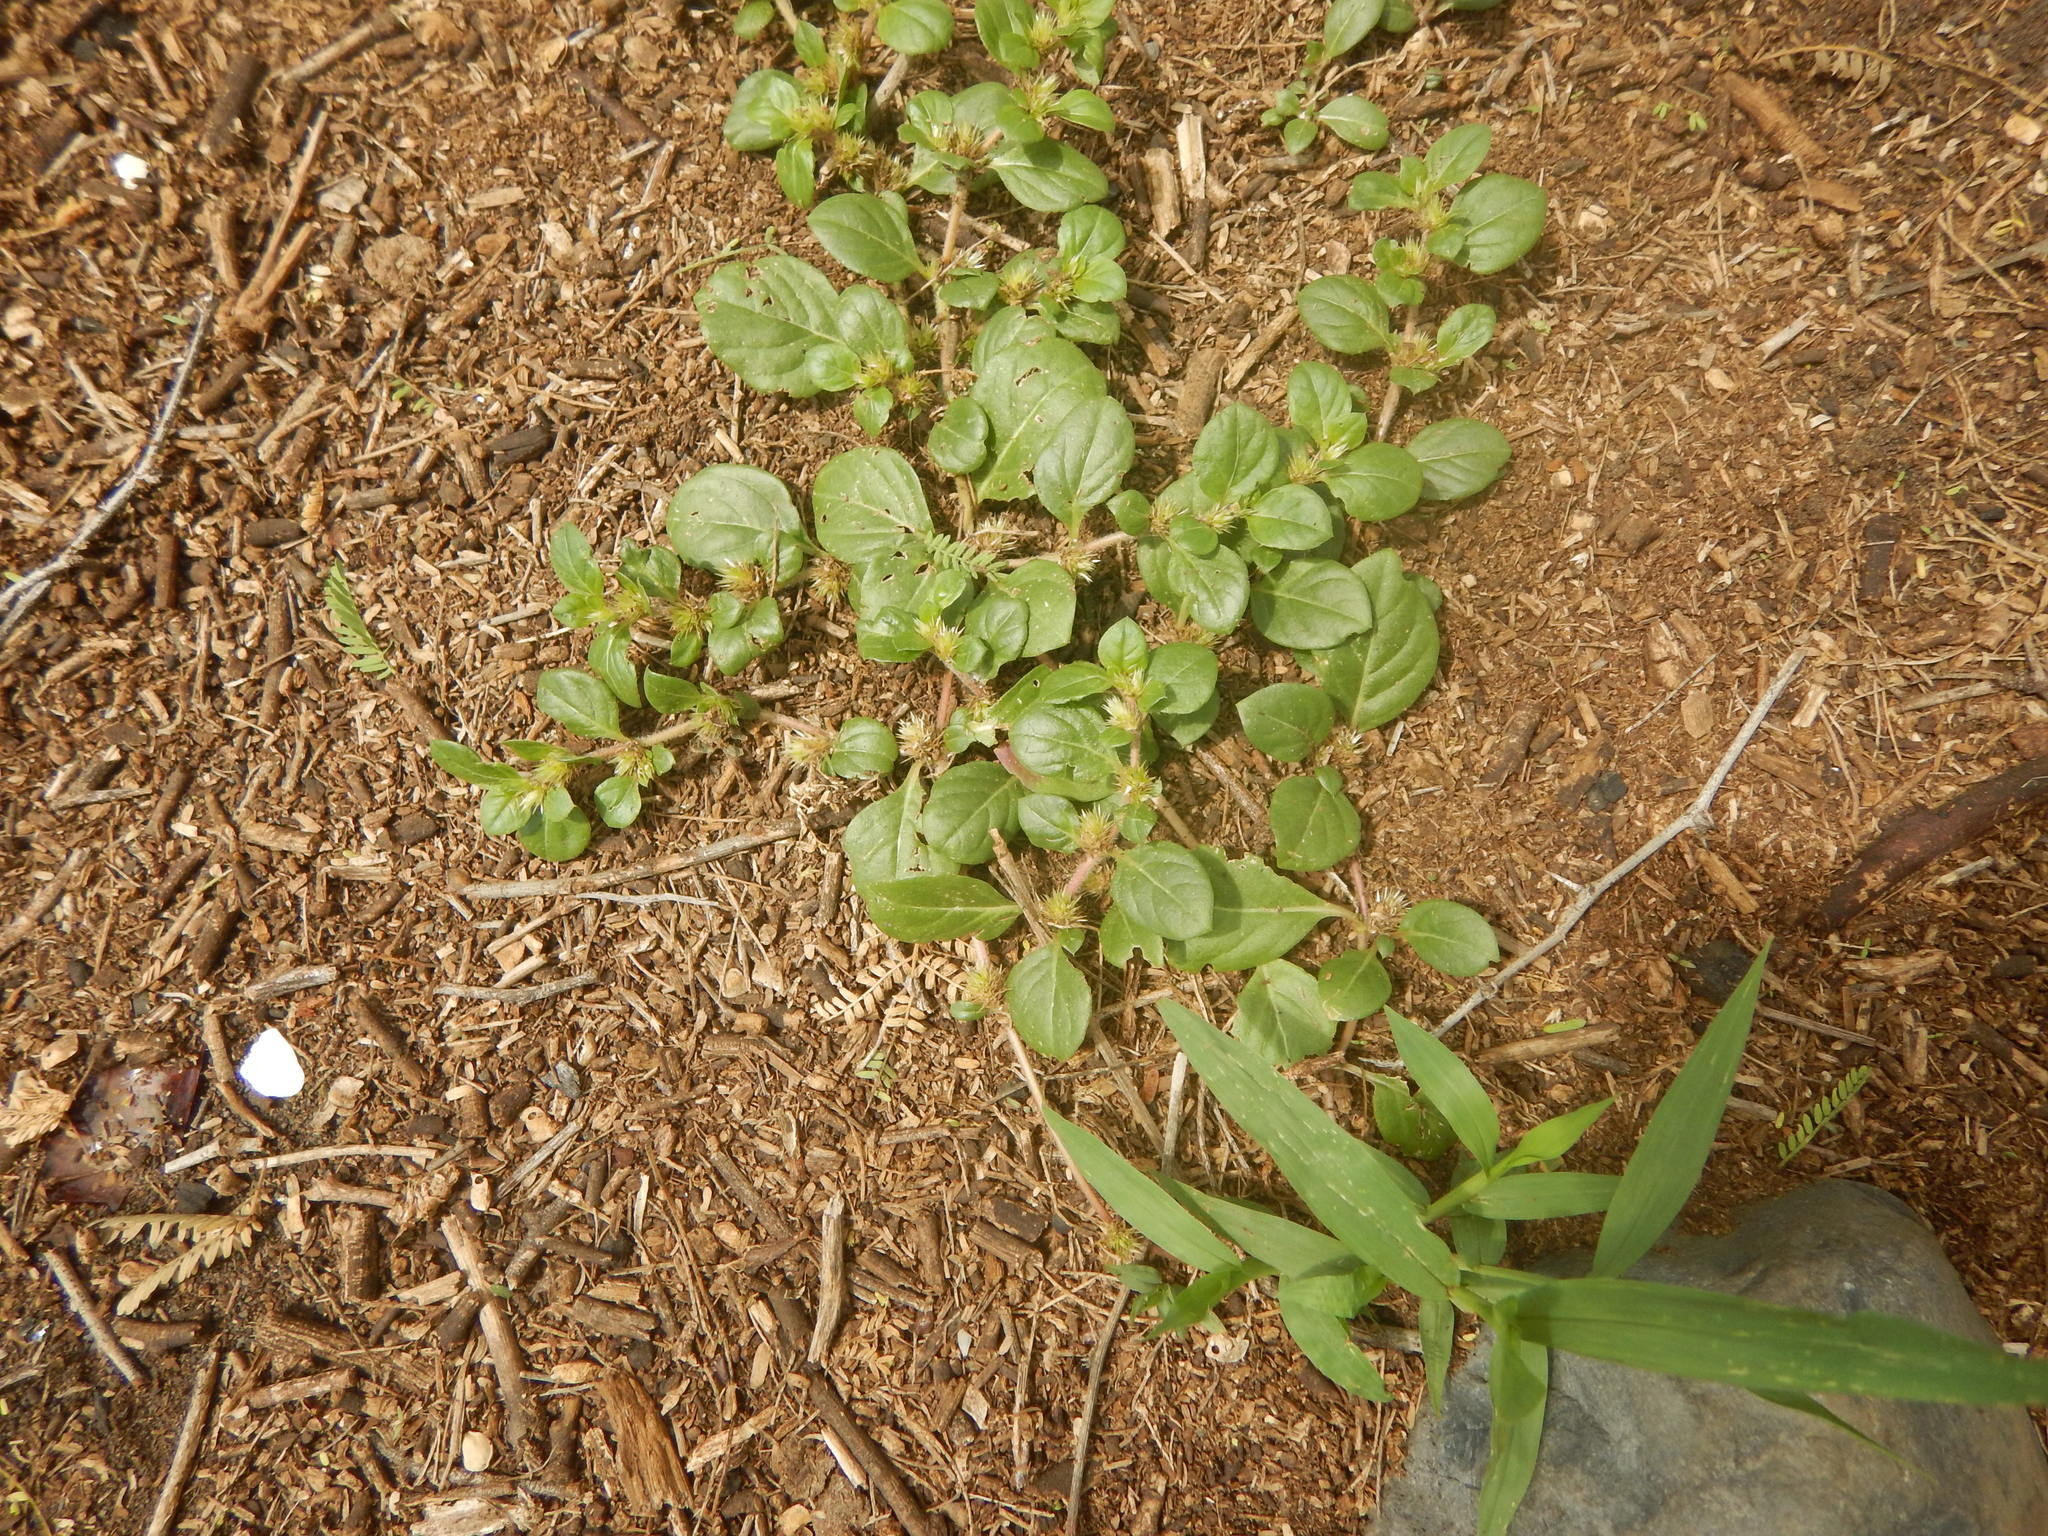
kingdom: Plantae
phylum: Tracheophyta
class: Magnoliopsida
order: Caryophyllales
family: Amaranthaceae
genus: Alternanthera
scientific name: Alternanthera pungens
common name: Khakiweed
